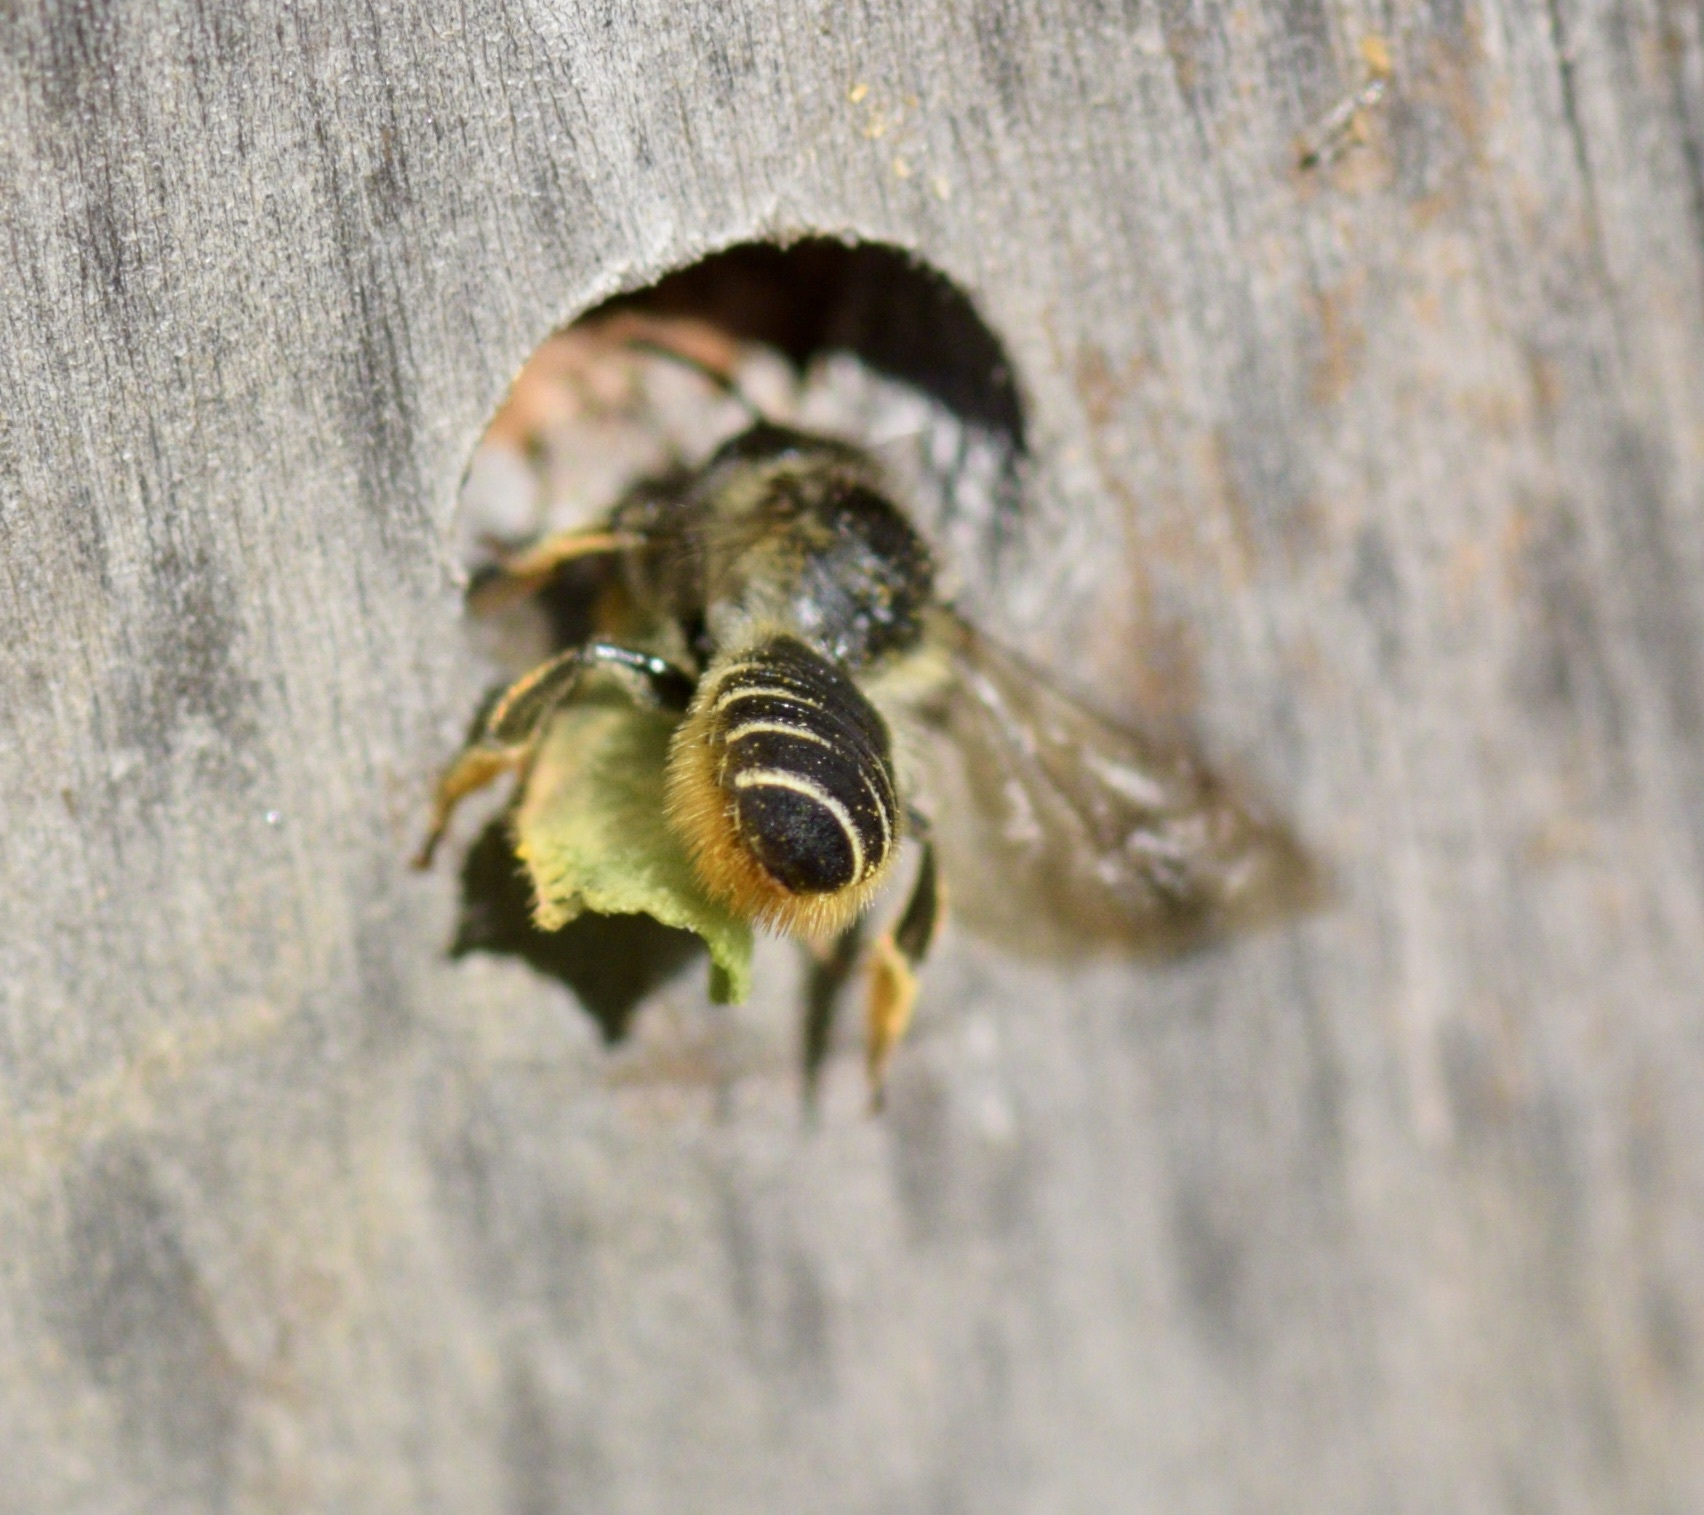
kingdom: Animalia
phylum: Arthropoda
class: Insecta
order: Hymenoptera
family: Megachilidae
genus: Megachile
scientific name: Megachile relativa
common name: Golden-tailed leafcutter
